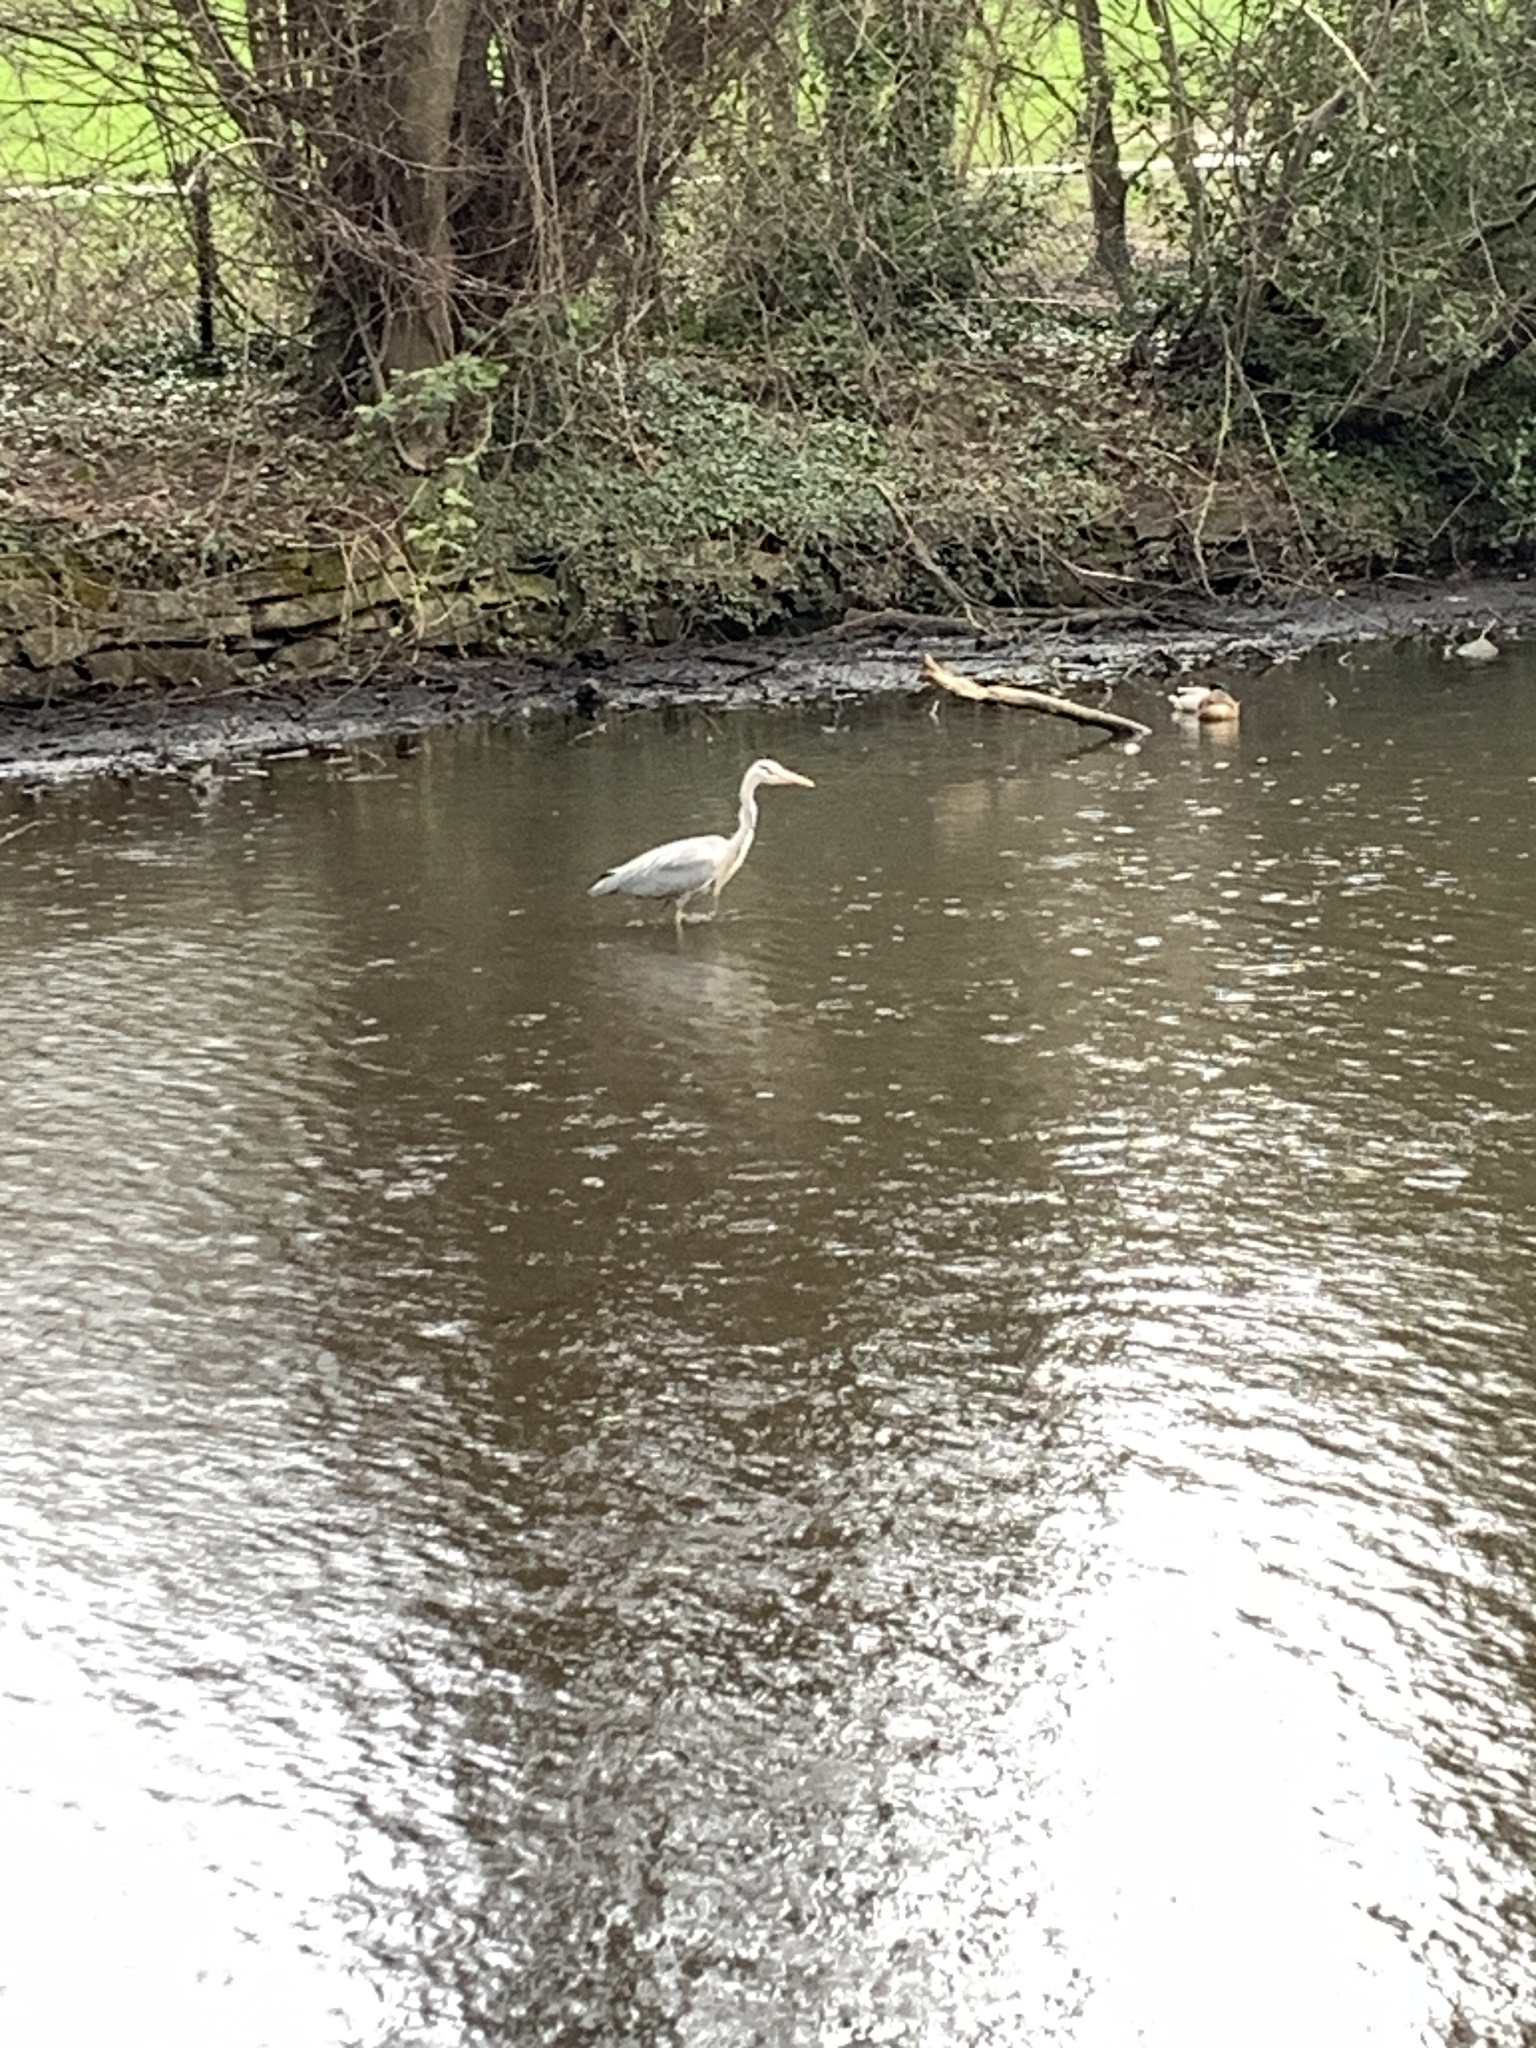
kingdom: Animalia
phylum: Chordata
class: Aves
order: Pelecaniformes
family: Ardeidae
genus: Ardea
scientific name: Ardea cinerea
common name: Grey heron
